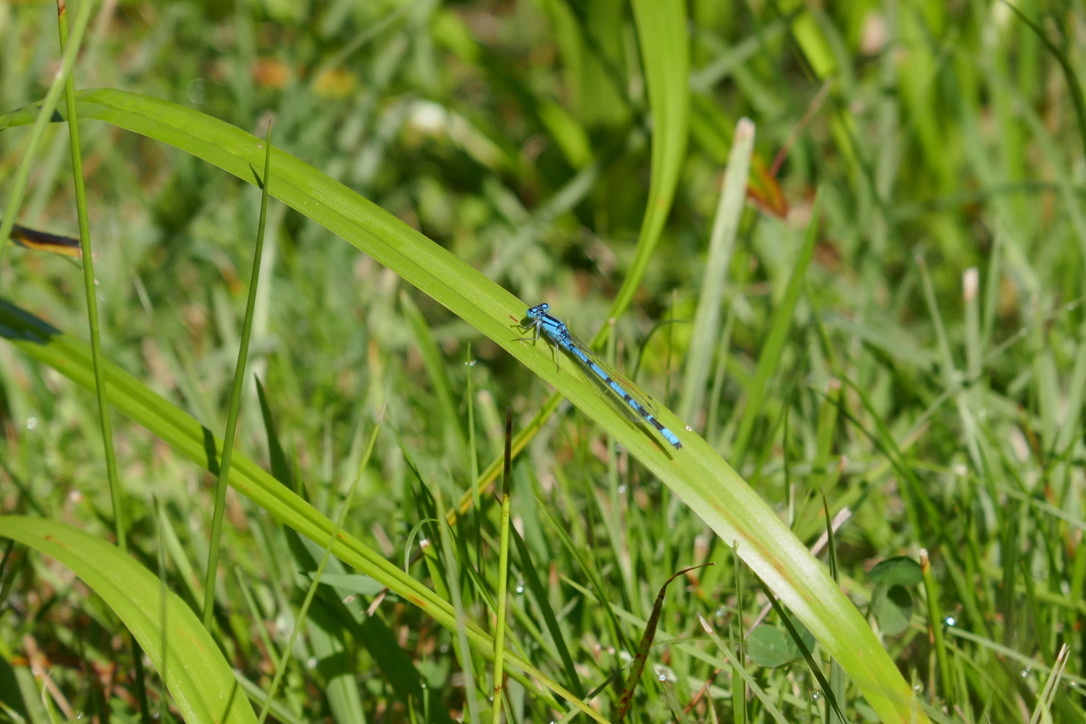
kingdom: Animalia
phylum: Arthropoda
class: Insecta
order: Odonata
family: Coenagrionidae
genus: Enallagma
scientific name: Enallagma cyathigerum
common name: Common blue damselfly
